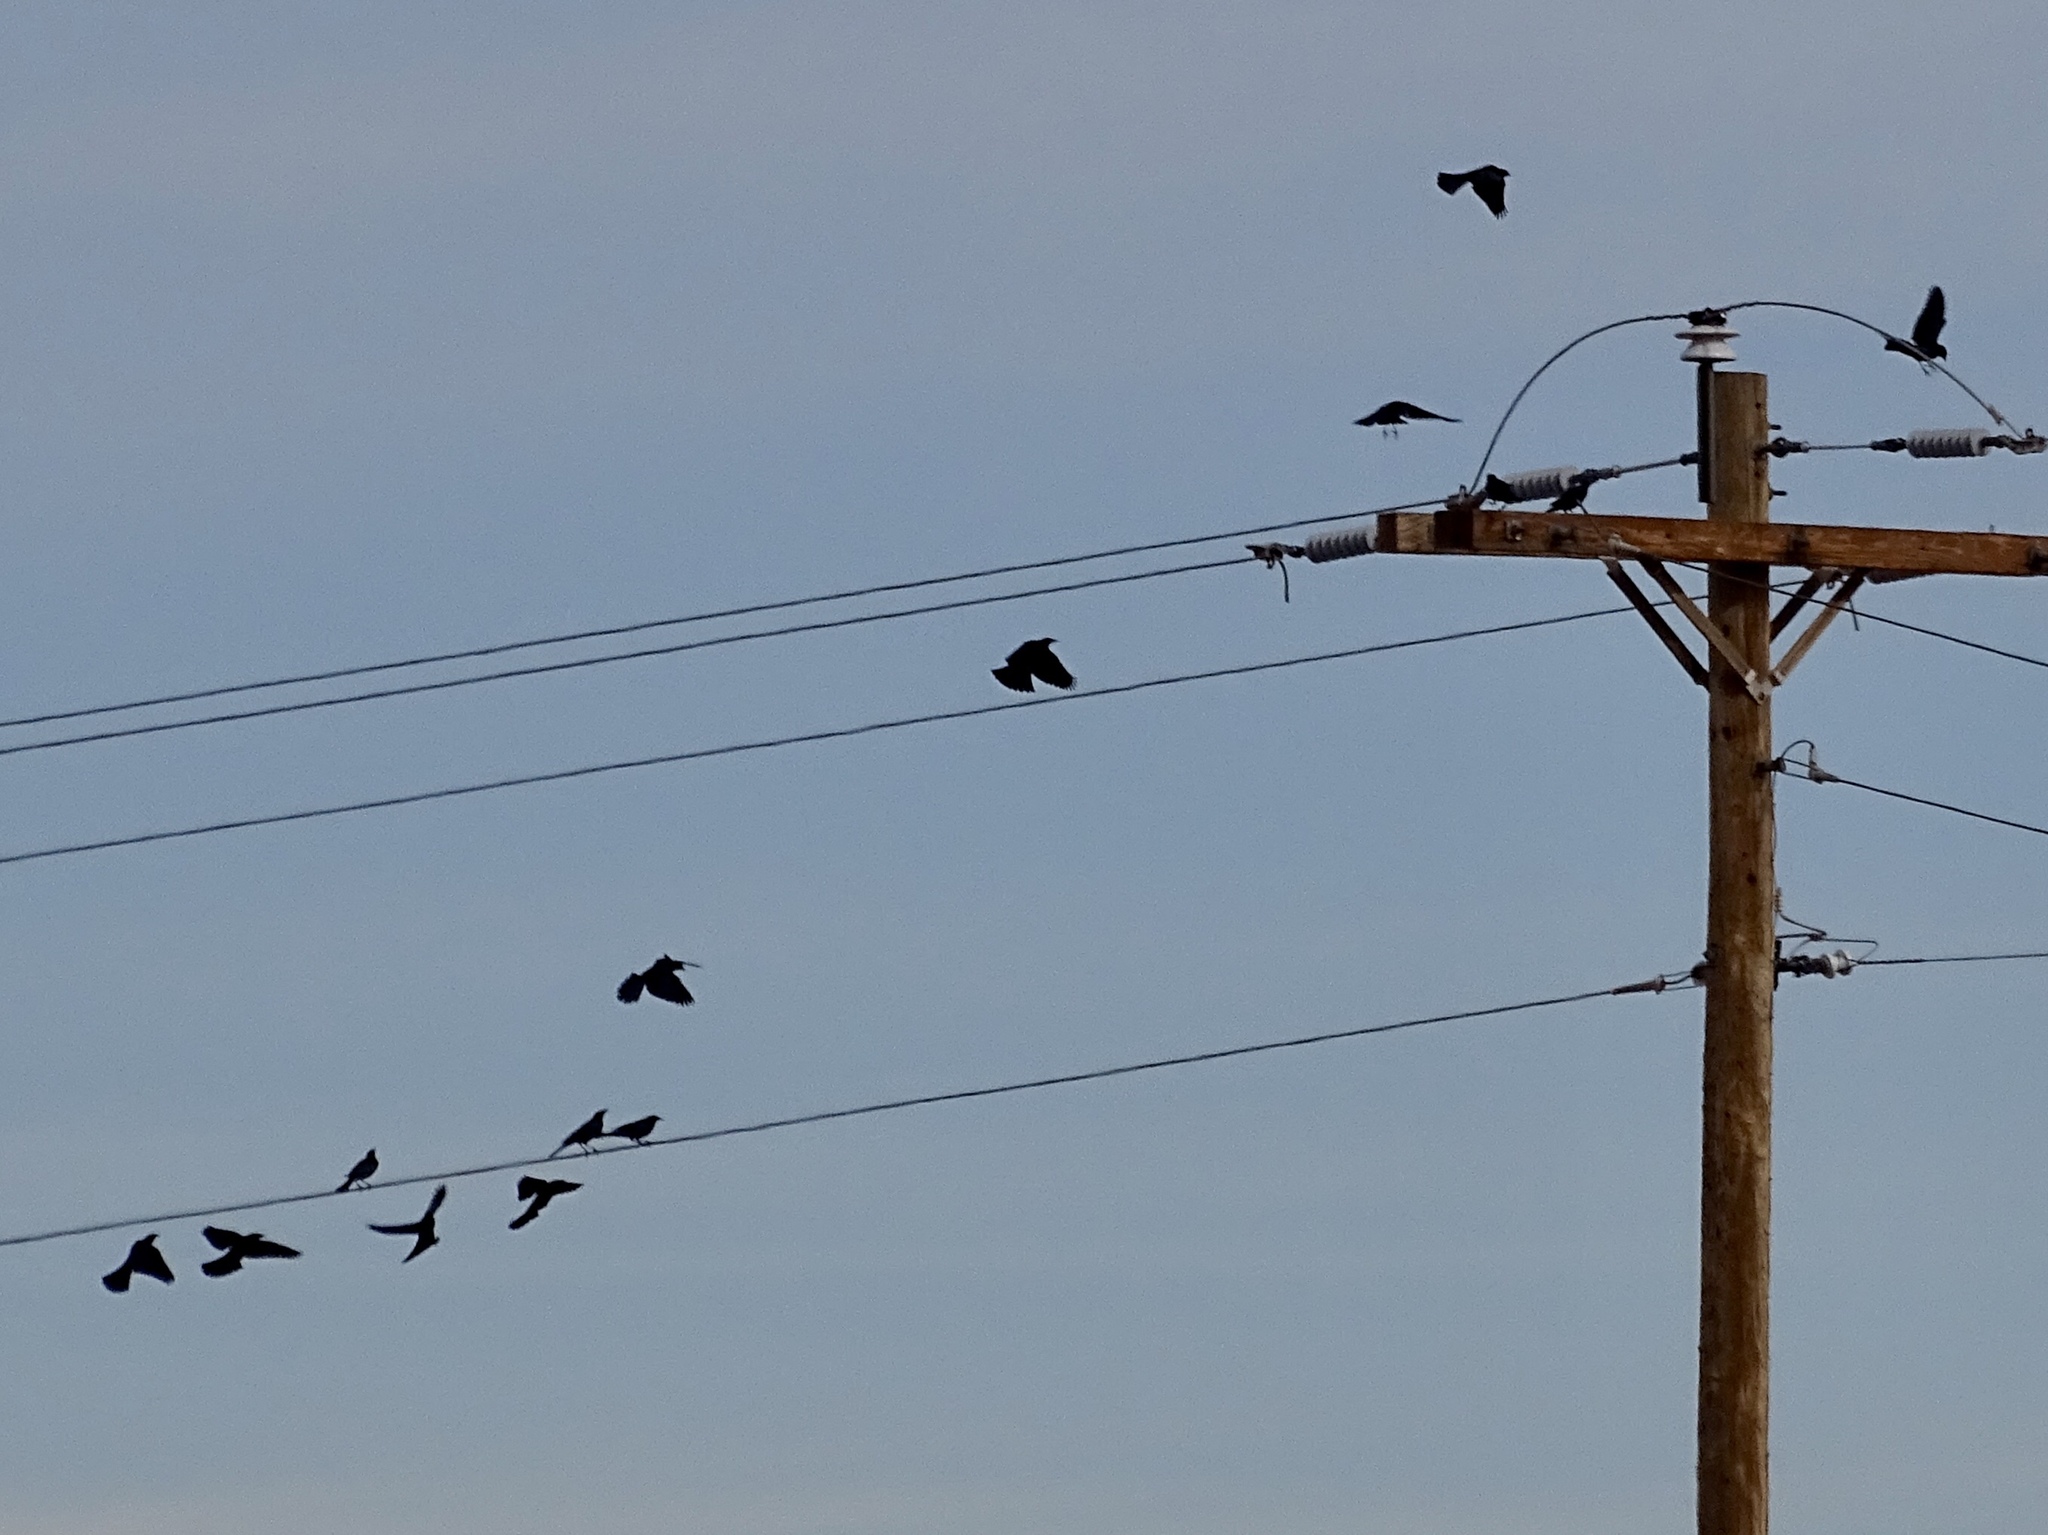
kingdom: Animalia
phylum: Chordata
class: Aves
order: Passeriformes
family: Icteridae
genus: Euphagus
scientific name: Euphagus cyanocephalus
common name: Brewer's blackbird
